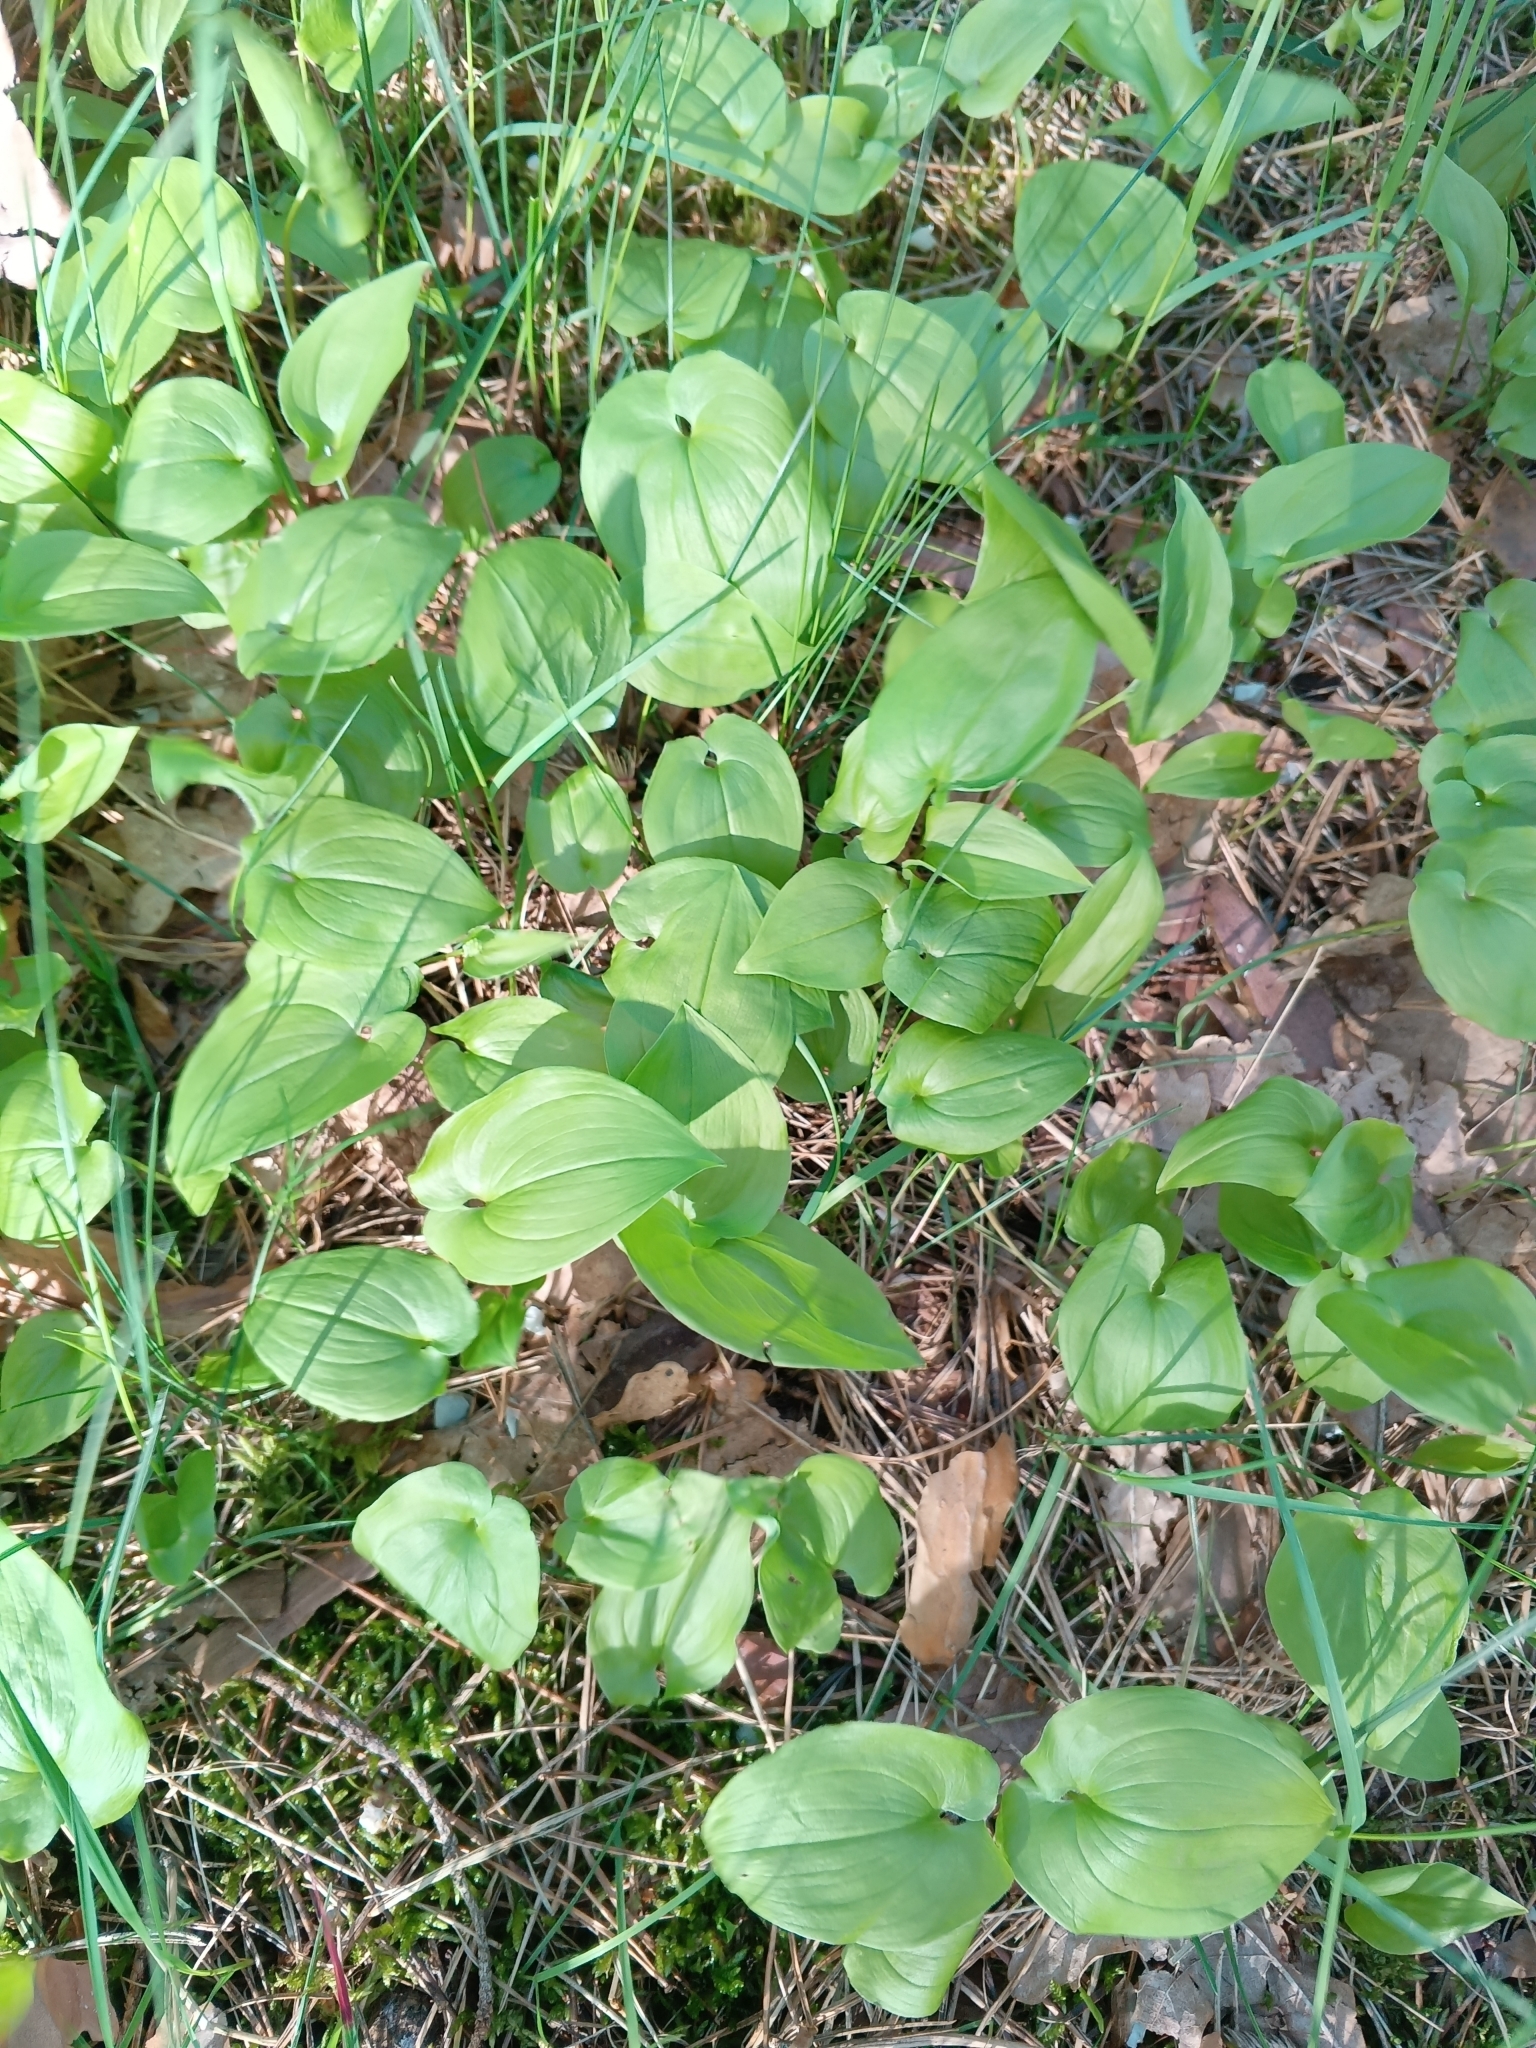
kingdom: Plantae
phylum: Tracheophyta
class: Liliopsida
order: Asparagales
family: Asparagaceae
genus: Maianthemum
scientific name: Maianthemum bifolium
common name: May lily
